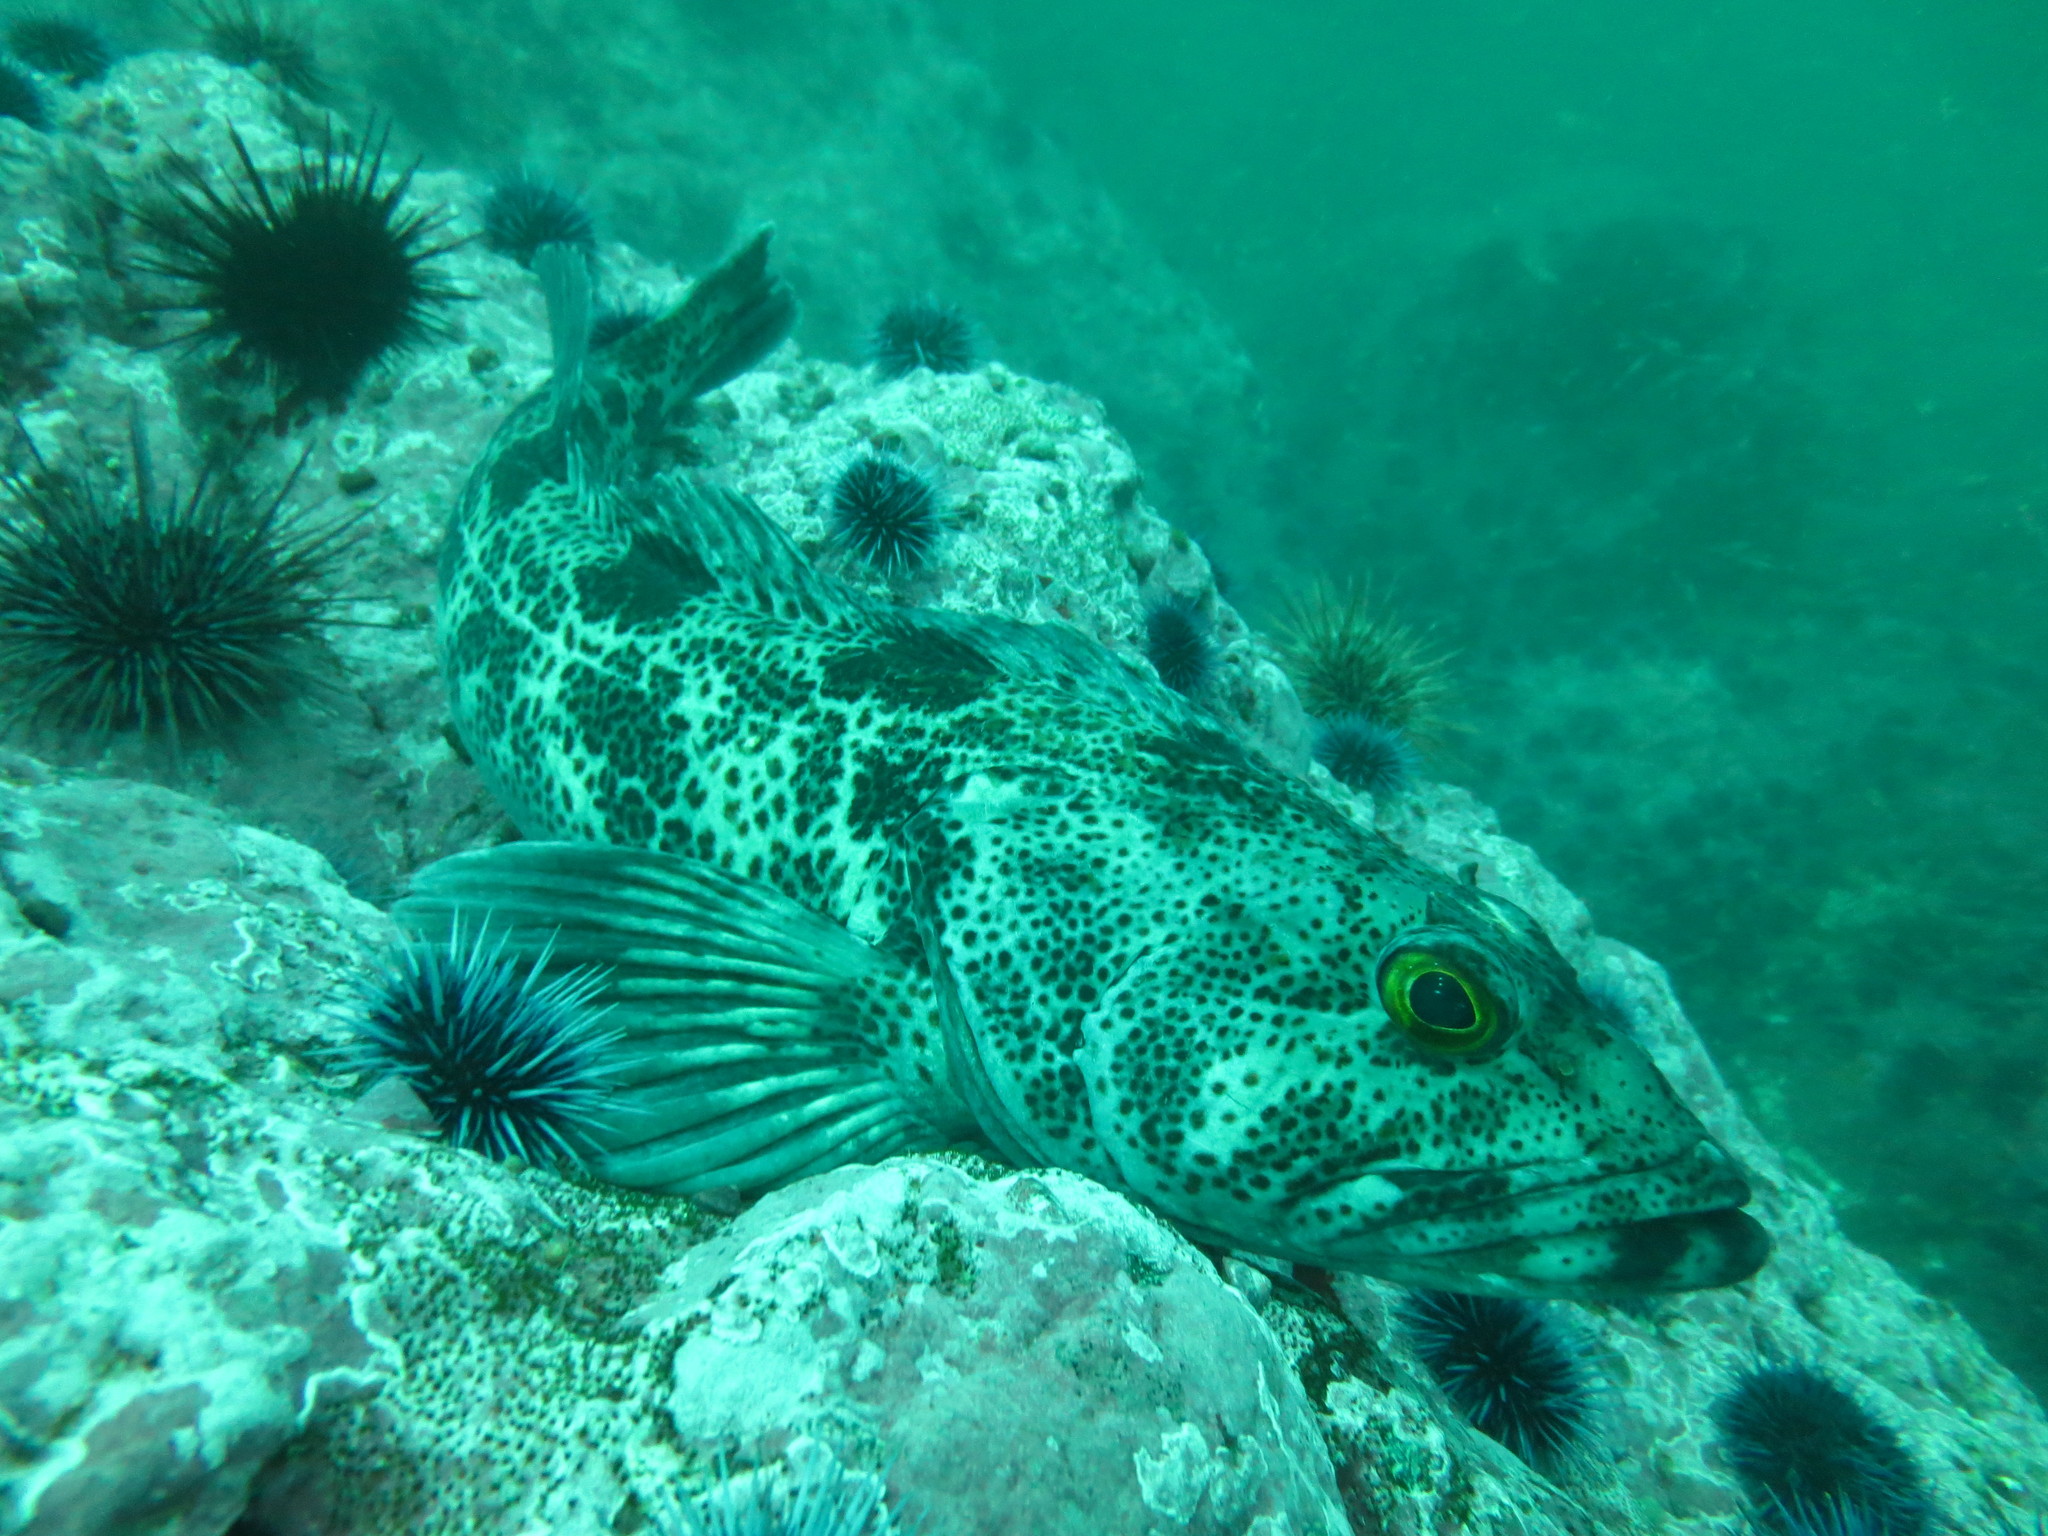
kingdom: Animalia
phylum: Chordata
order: Scorpaeniformes
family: Hexagrammidae
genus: Ophiodon
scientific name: Ophiodon elongatus
